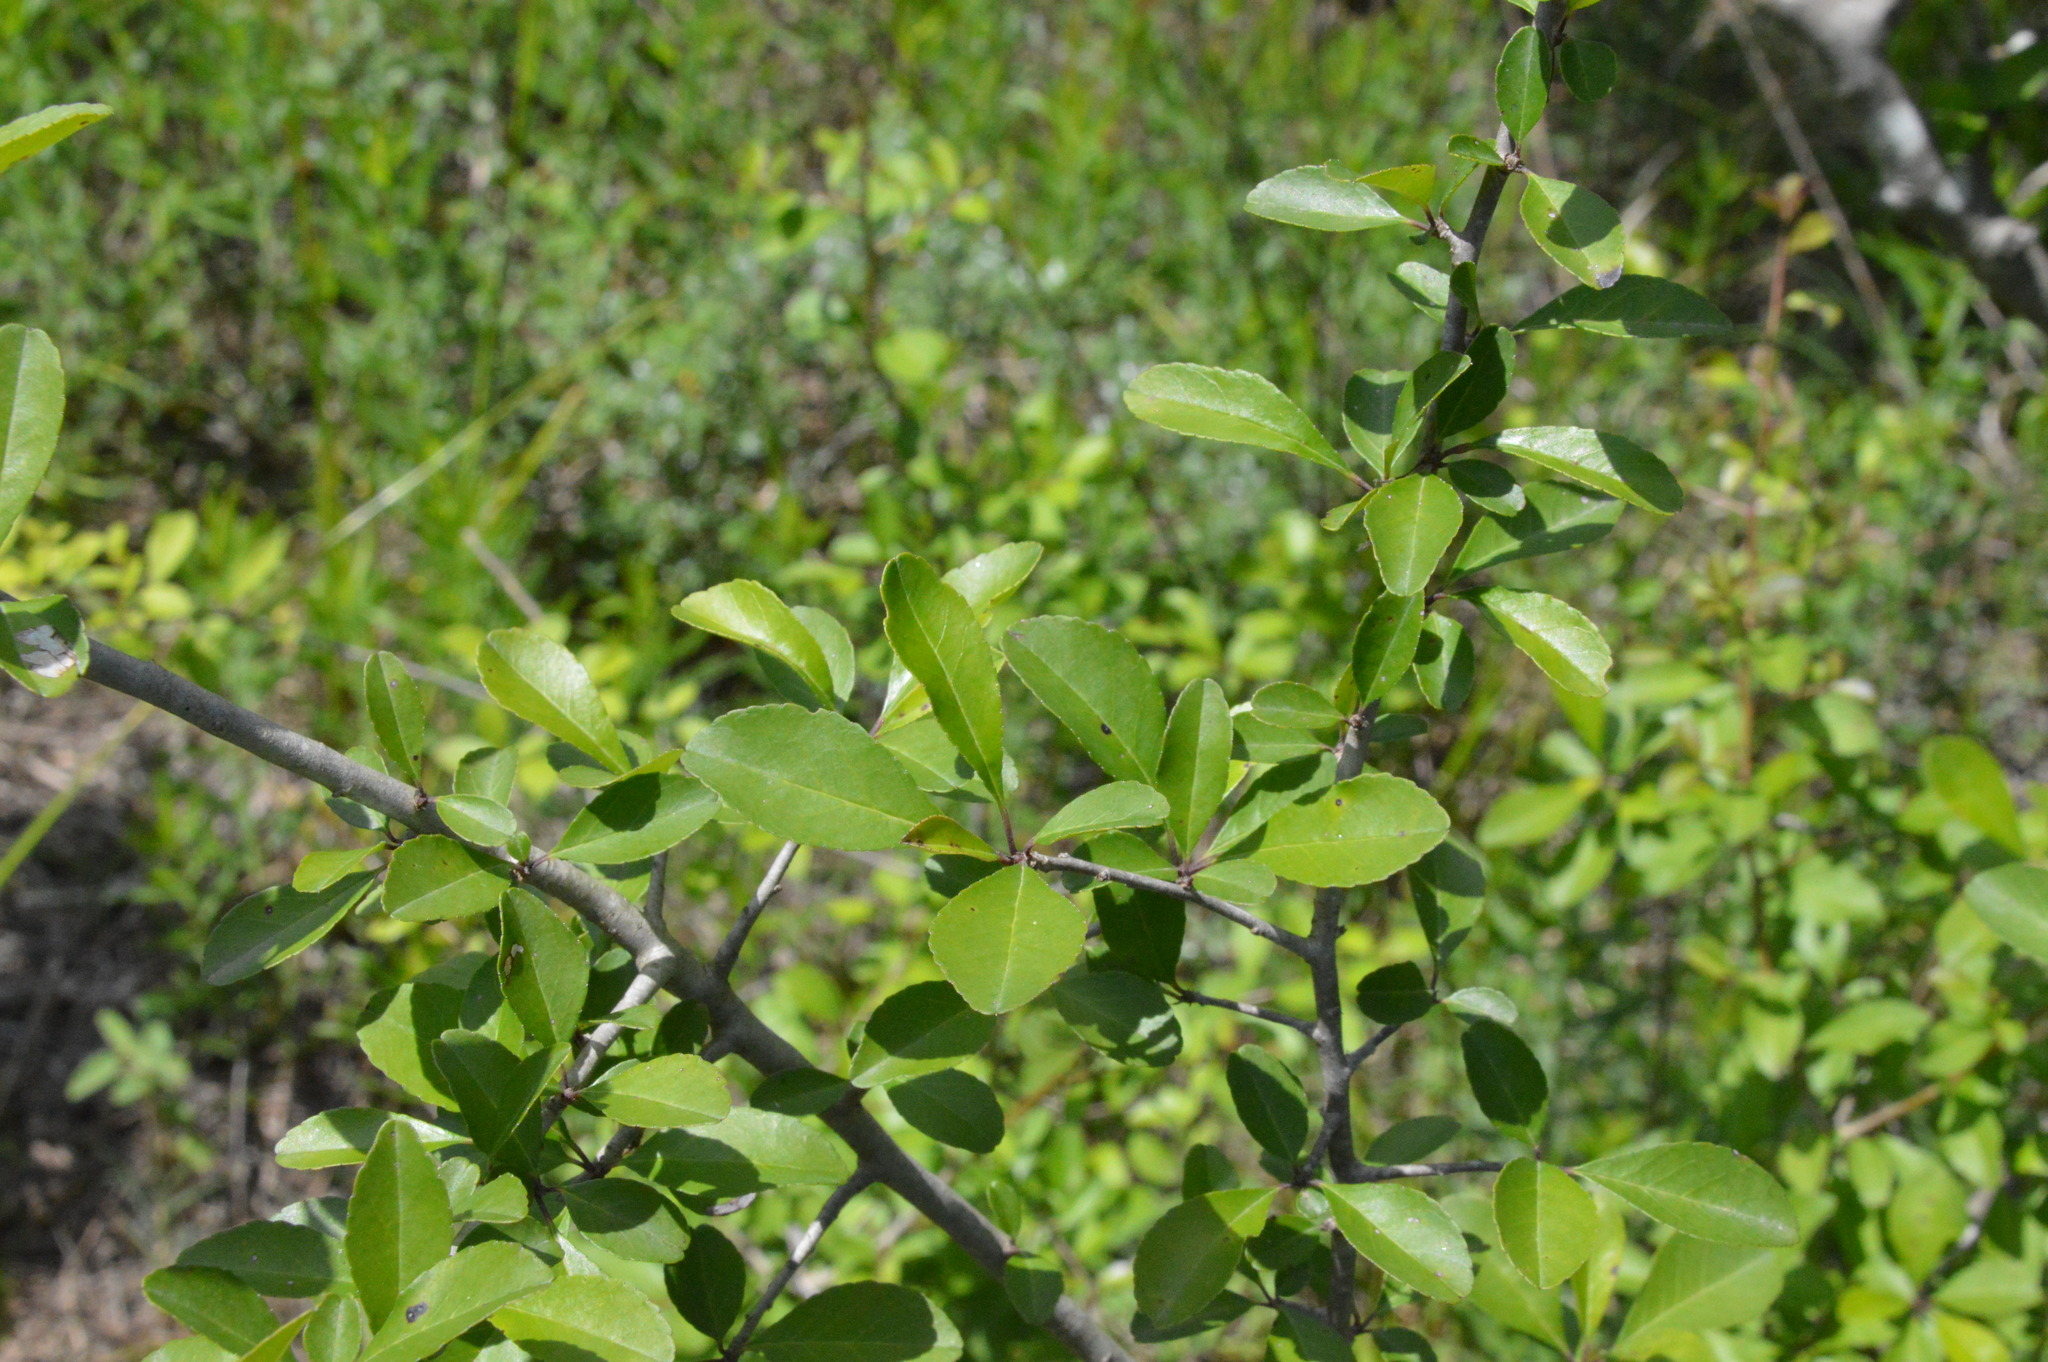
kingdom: Plantae
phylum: Tracheophyta
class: Magnoliopsida
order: Aquifoliales
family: Aquifoliaceae
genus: Ilex
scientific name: Ilex decidua
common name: Possum-haw
